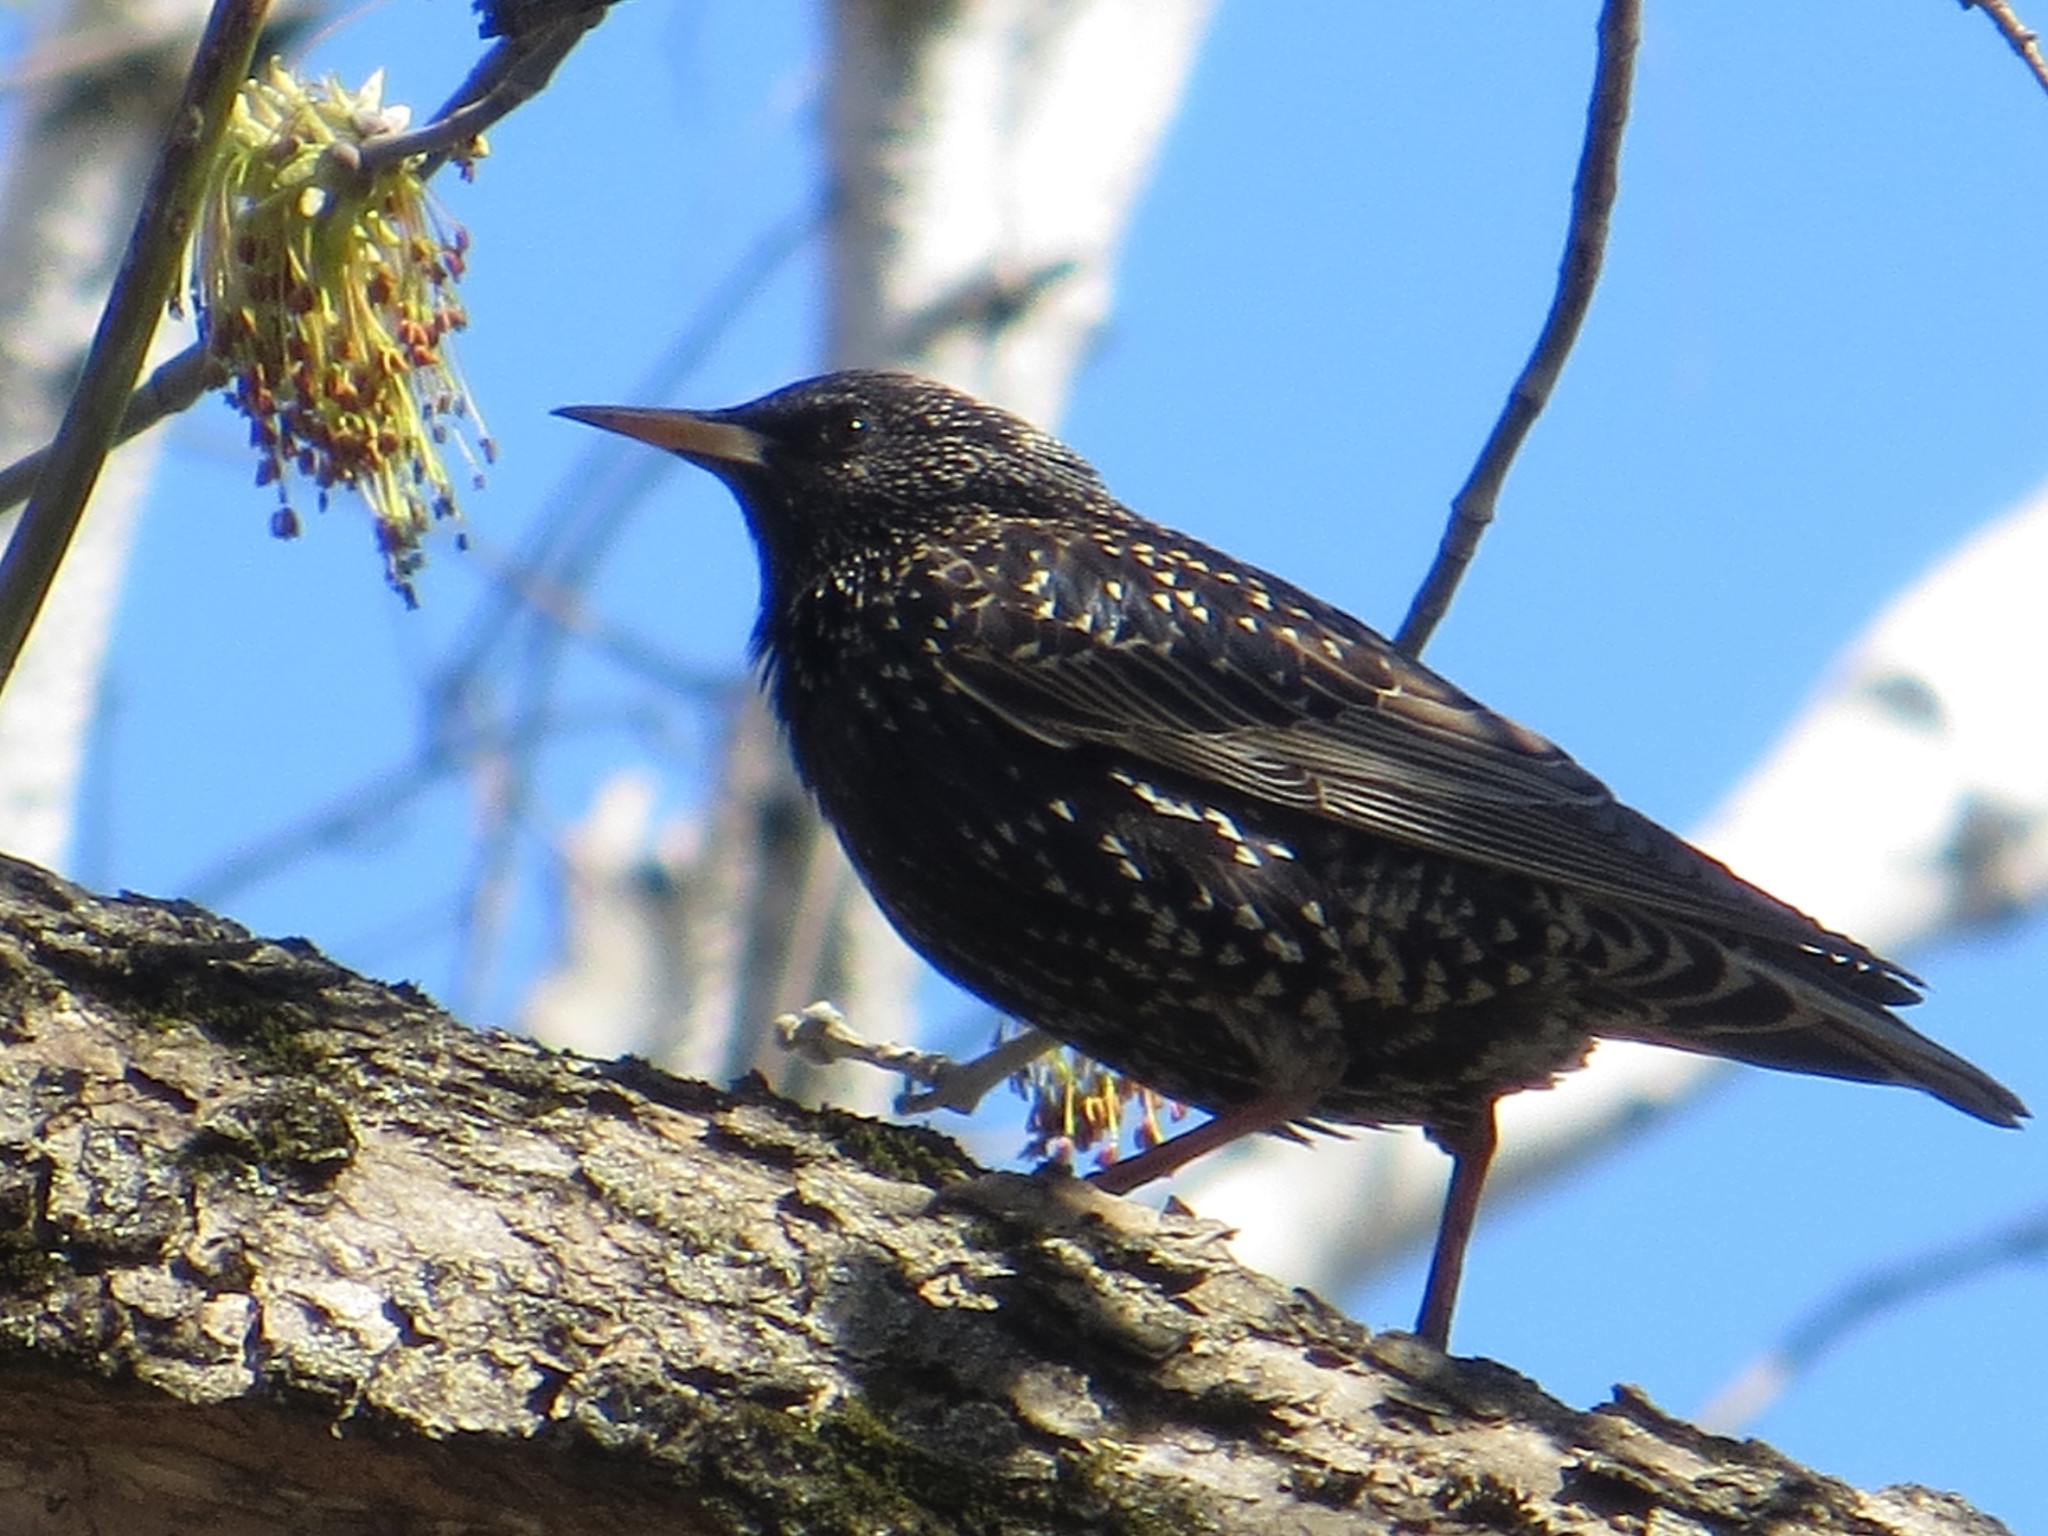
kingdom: Animalia
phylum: Chordata
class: Aves
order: Passeriformes
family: Sturnidae
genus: Sturnus
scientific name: Sturnus vulgaris
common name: Common starling
